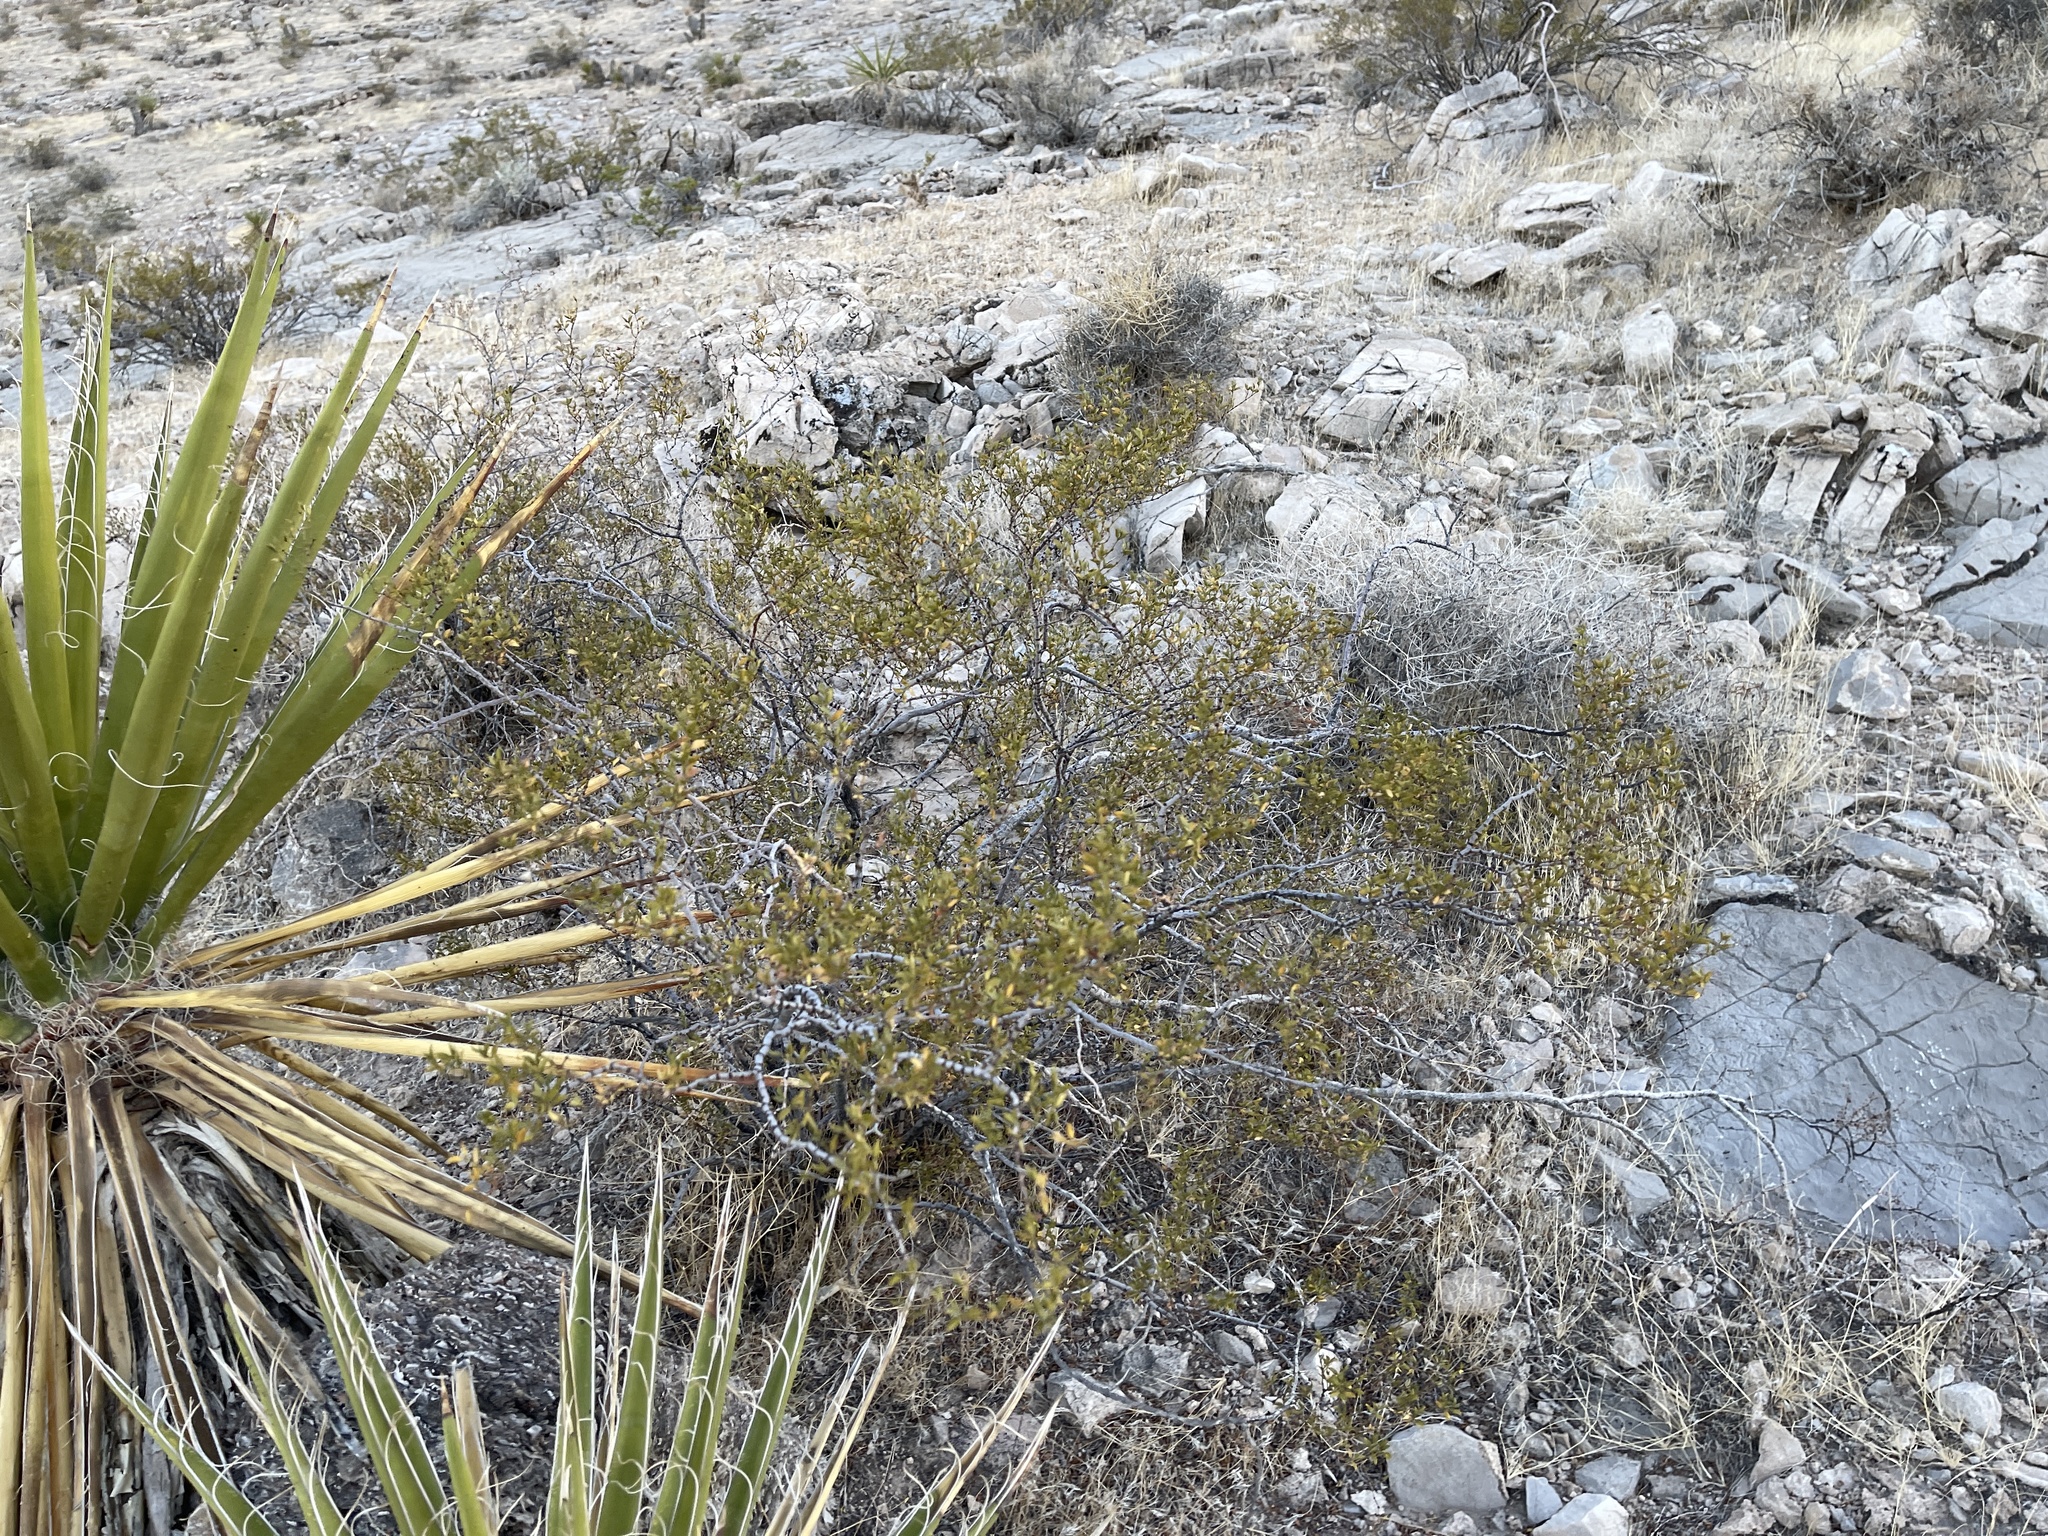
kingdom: Plantae
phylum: Tracheophyta
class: Magnoliopsida
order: Zygophyllales
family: Zygophyllaceae
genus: Larrea
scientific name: Larrea tridentata
